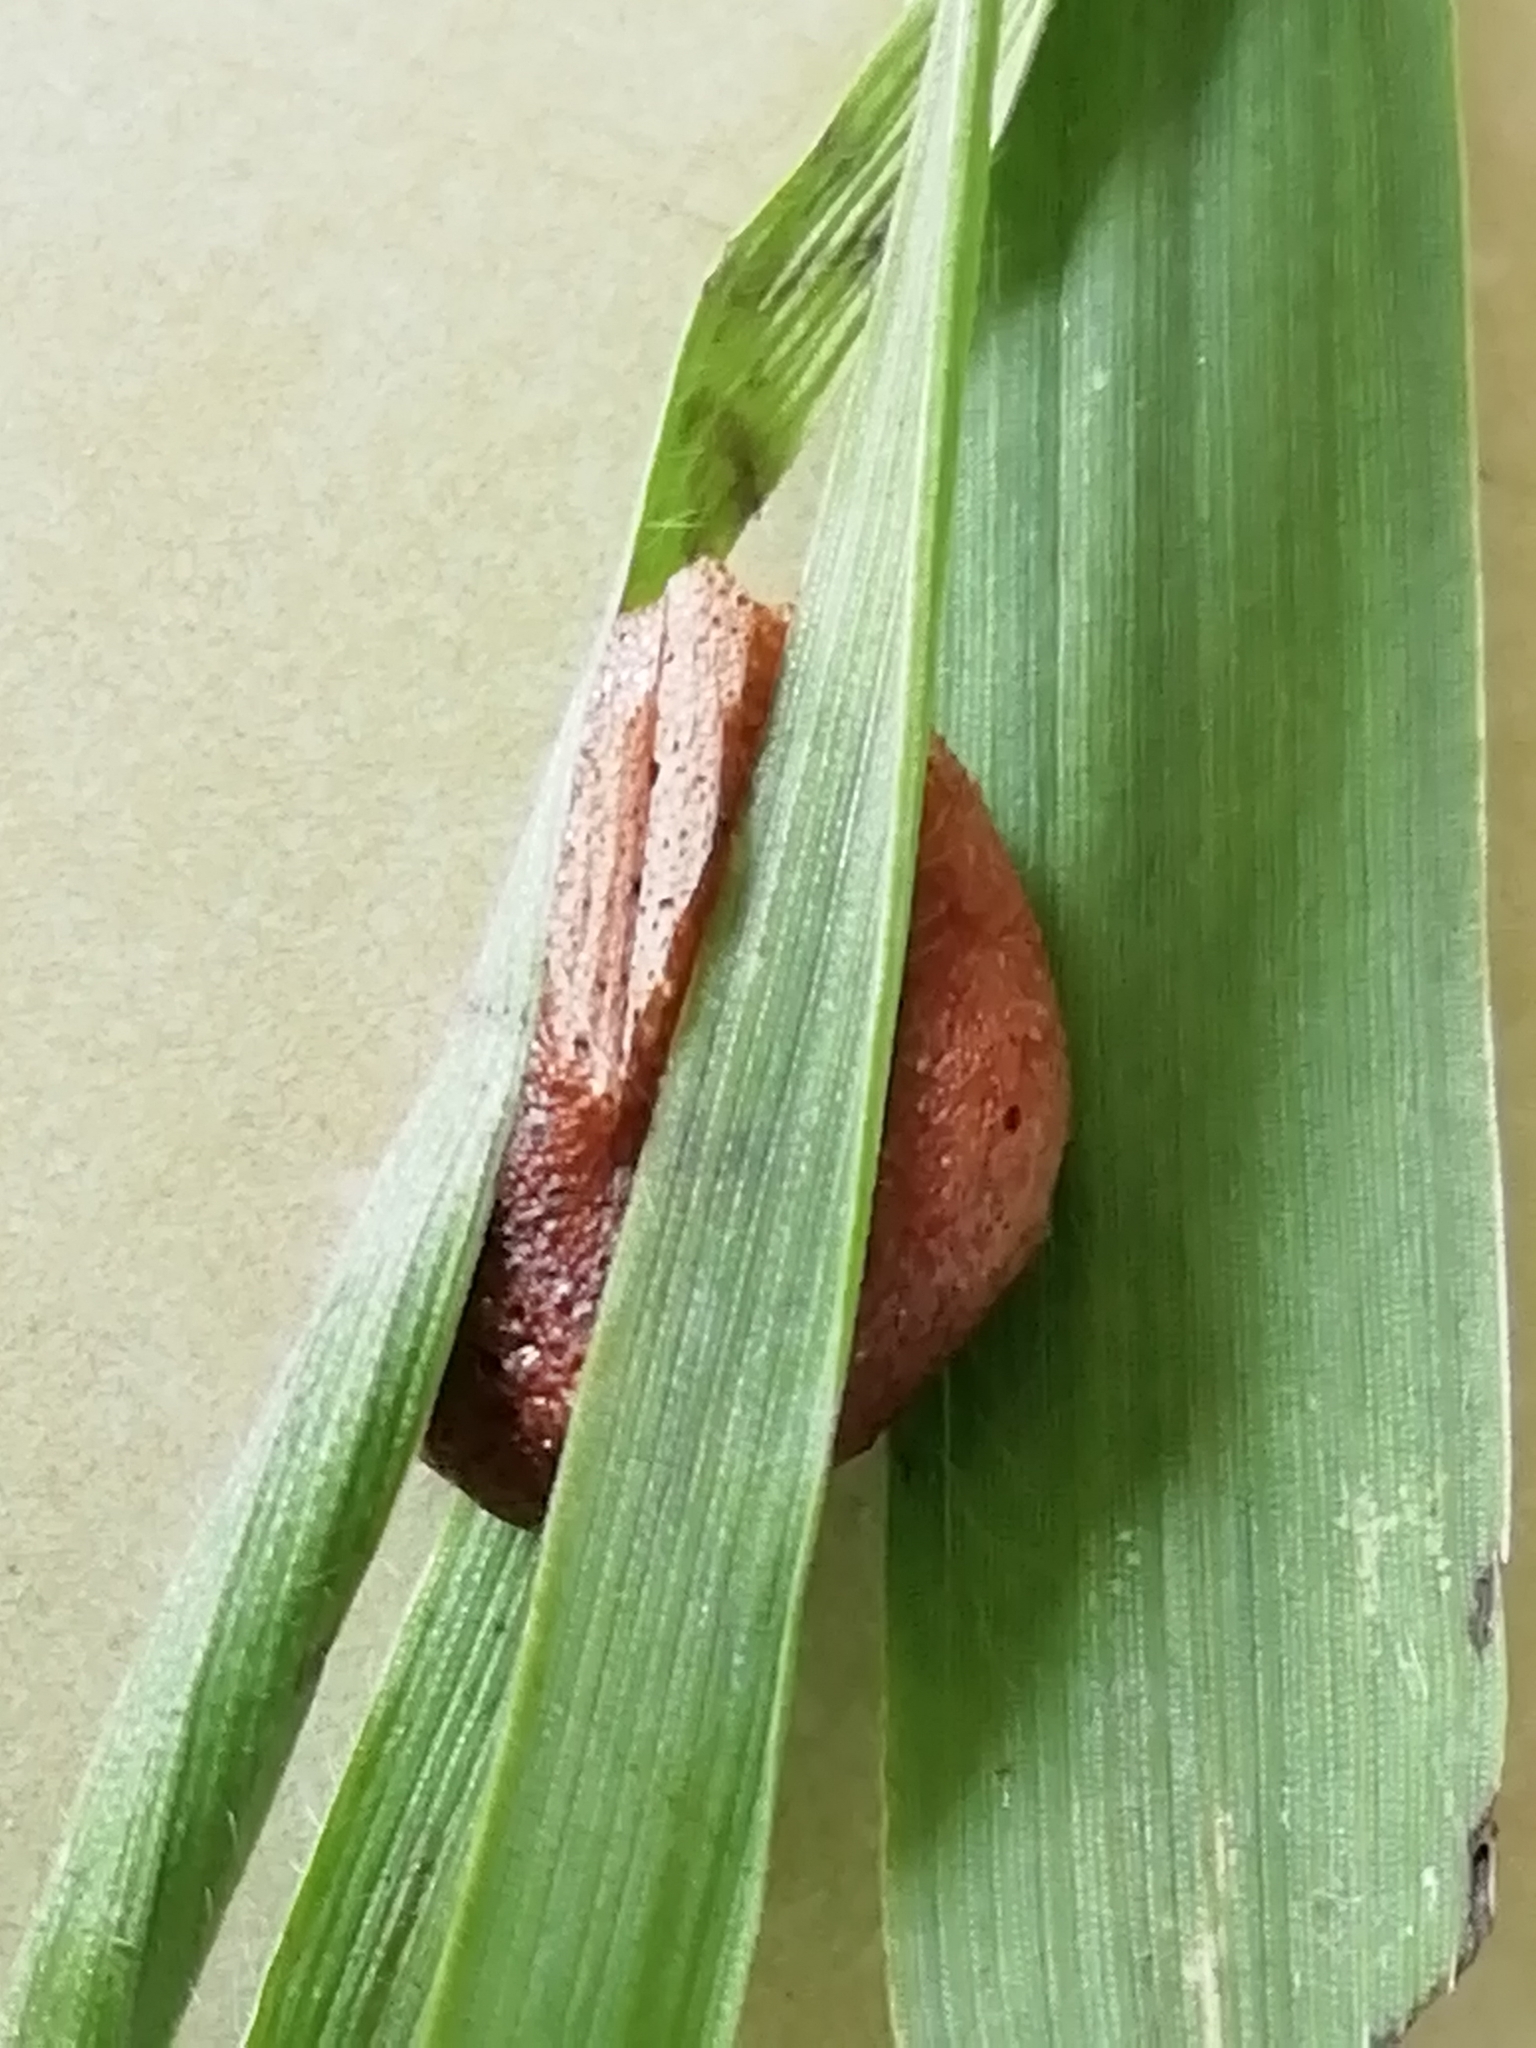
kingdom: Animalia
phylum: Arthropoda
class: Insecta
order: Orthoptera
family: Acrididae
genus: Epacromius
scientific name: Epacromius pulverulentus
